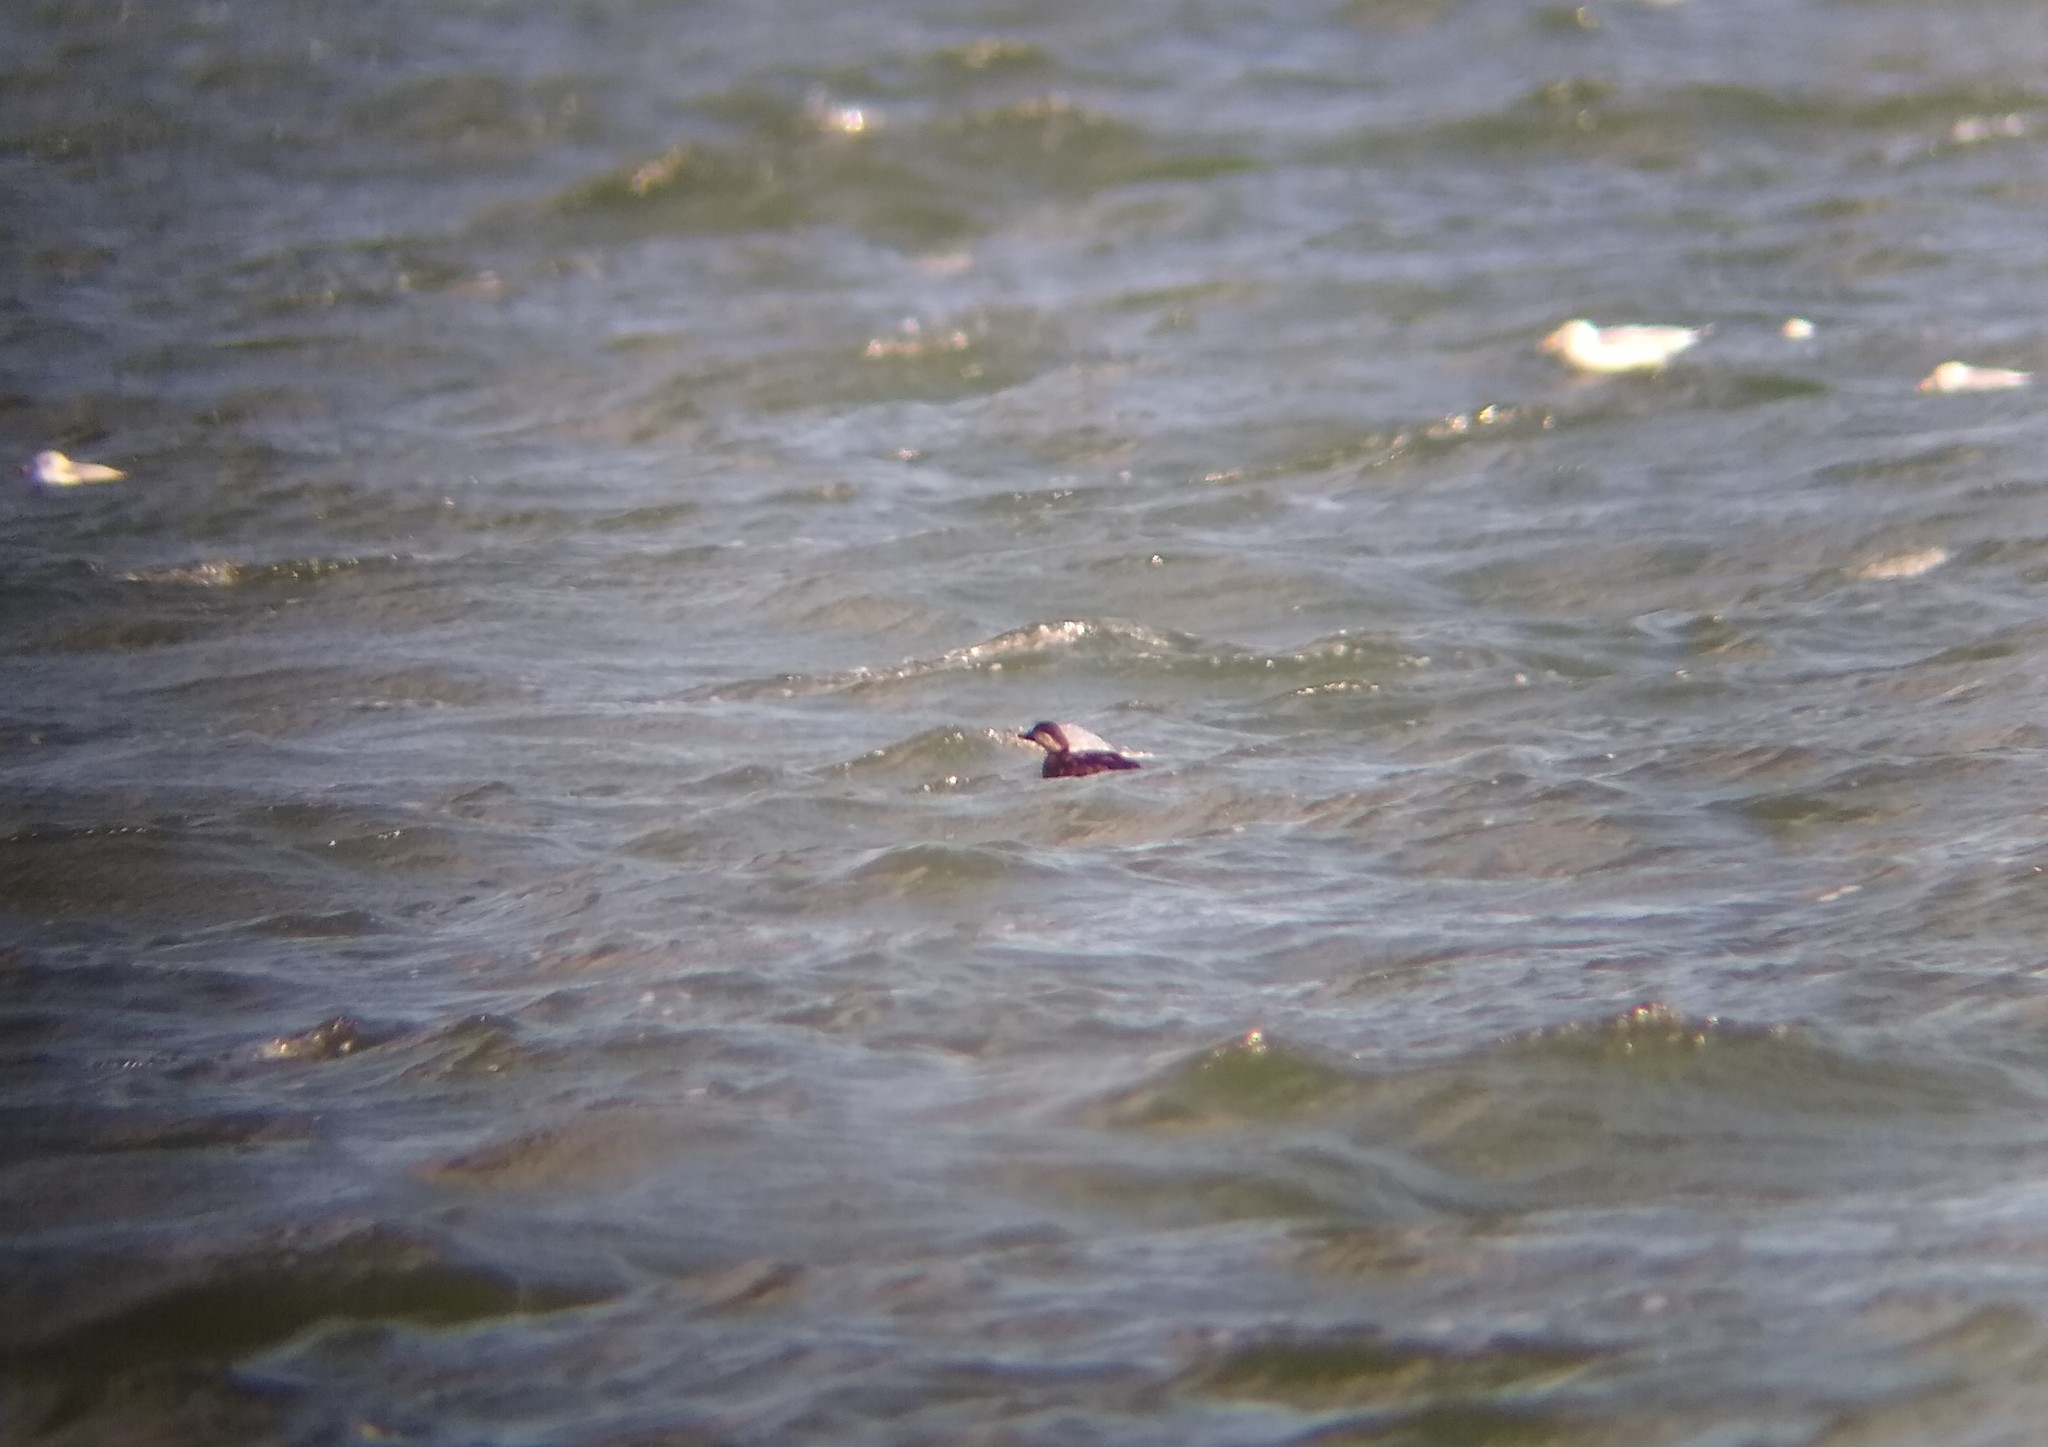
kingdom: Animalia
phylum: Chordata
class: Aves
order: Anseriformes
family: Anatidae
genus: Melanitta
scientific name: Melanitta americana
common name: Black scoter
